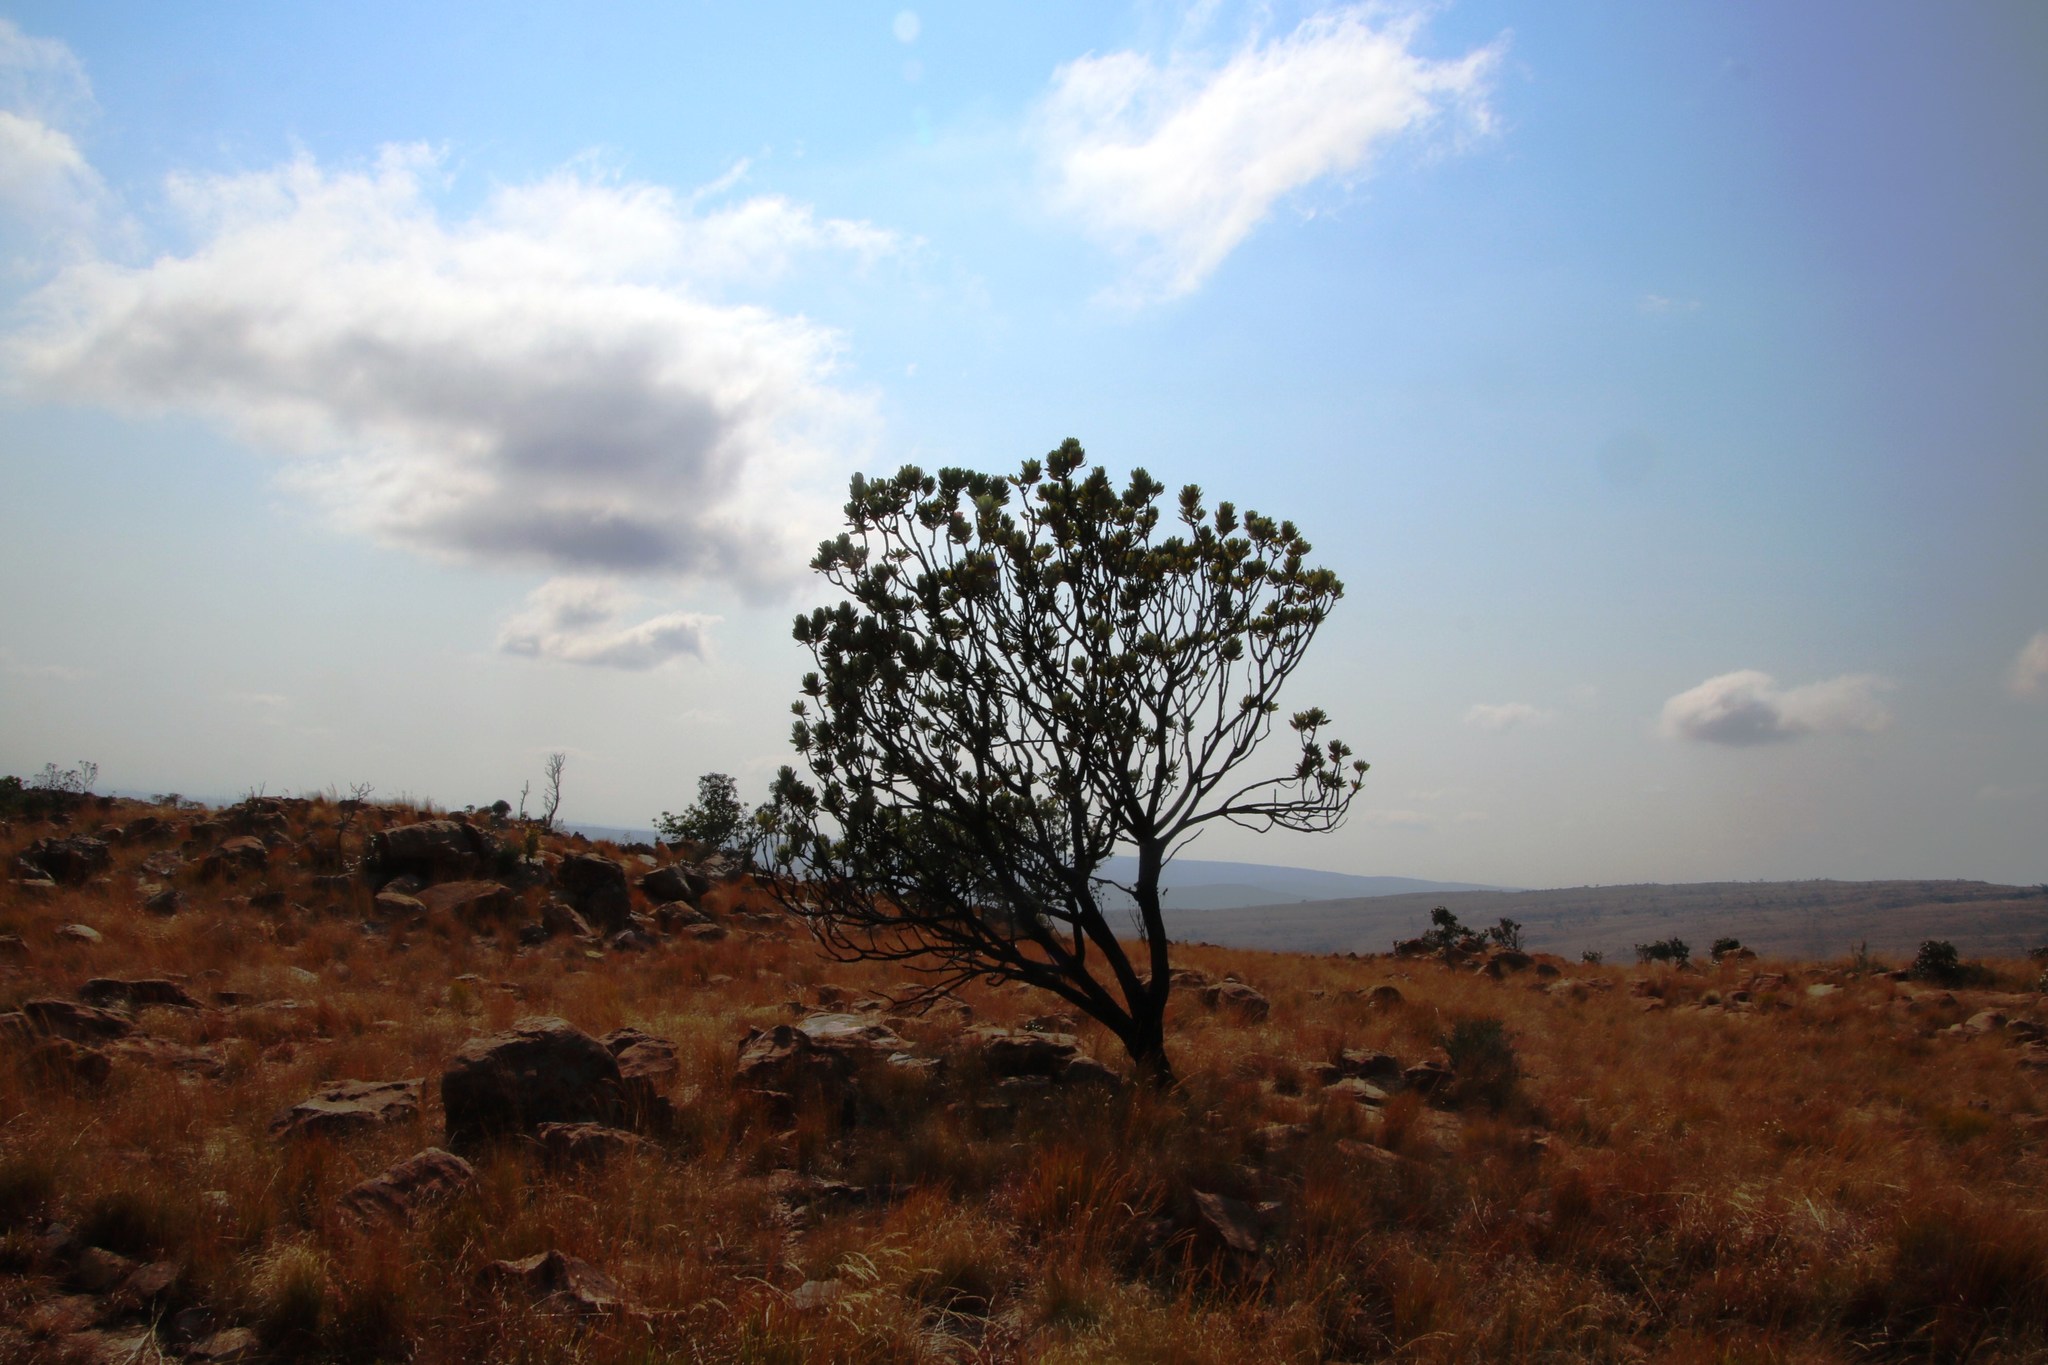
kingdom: Plantae
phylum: Tracheophyta
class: Magnoliopsida
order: Proteales
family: Proteaceae
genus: Protea
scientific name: Protea roupelliae
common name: Silver sugarbush
